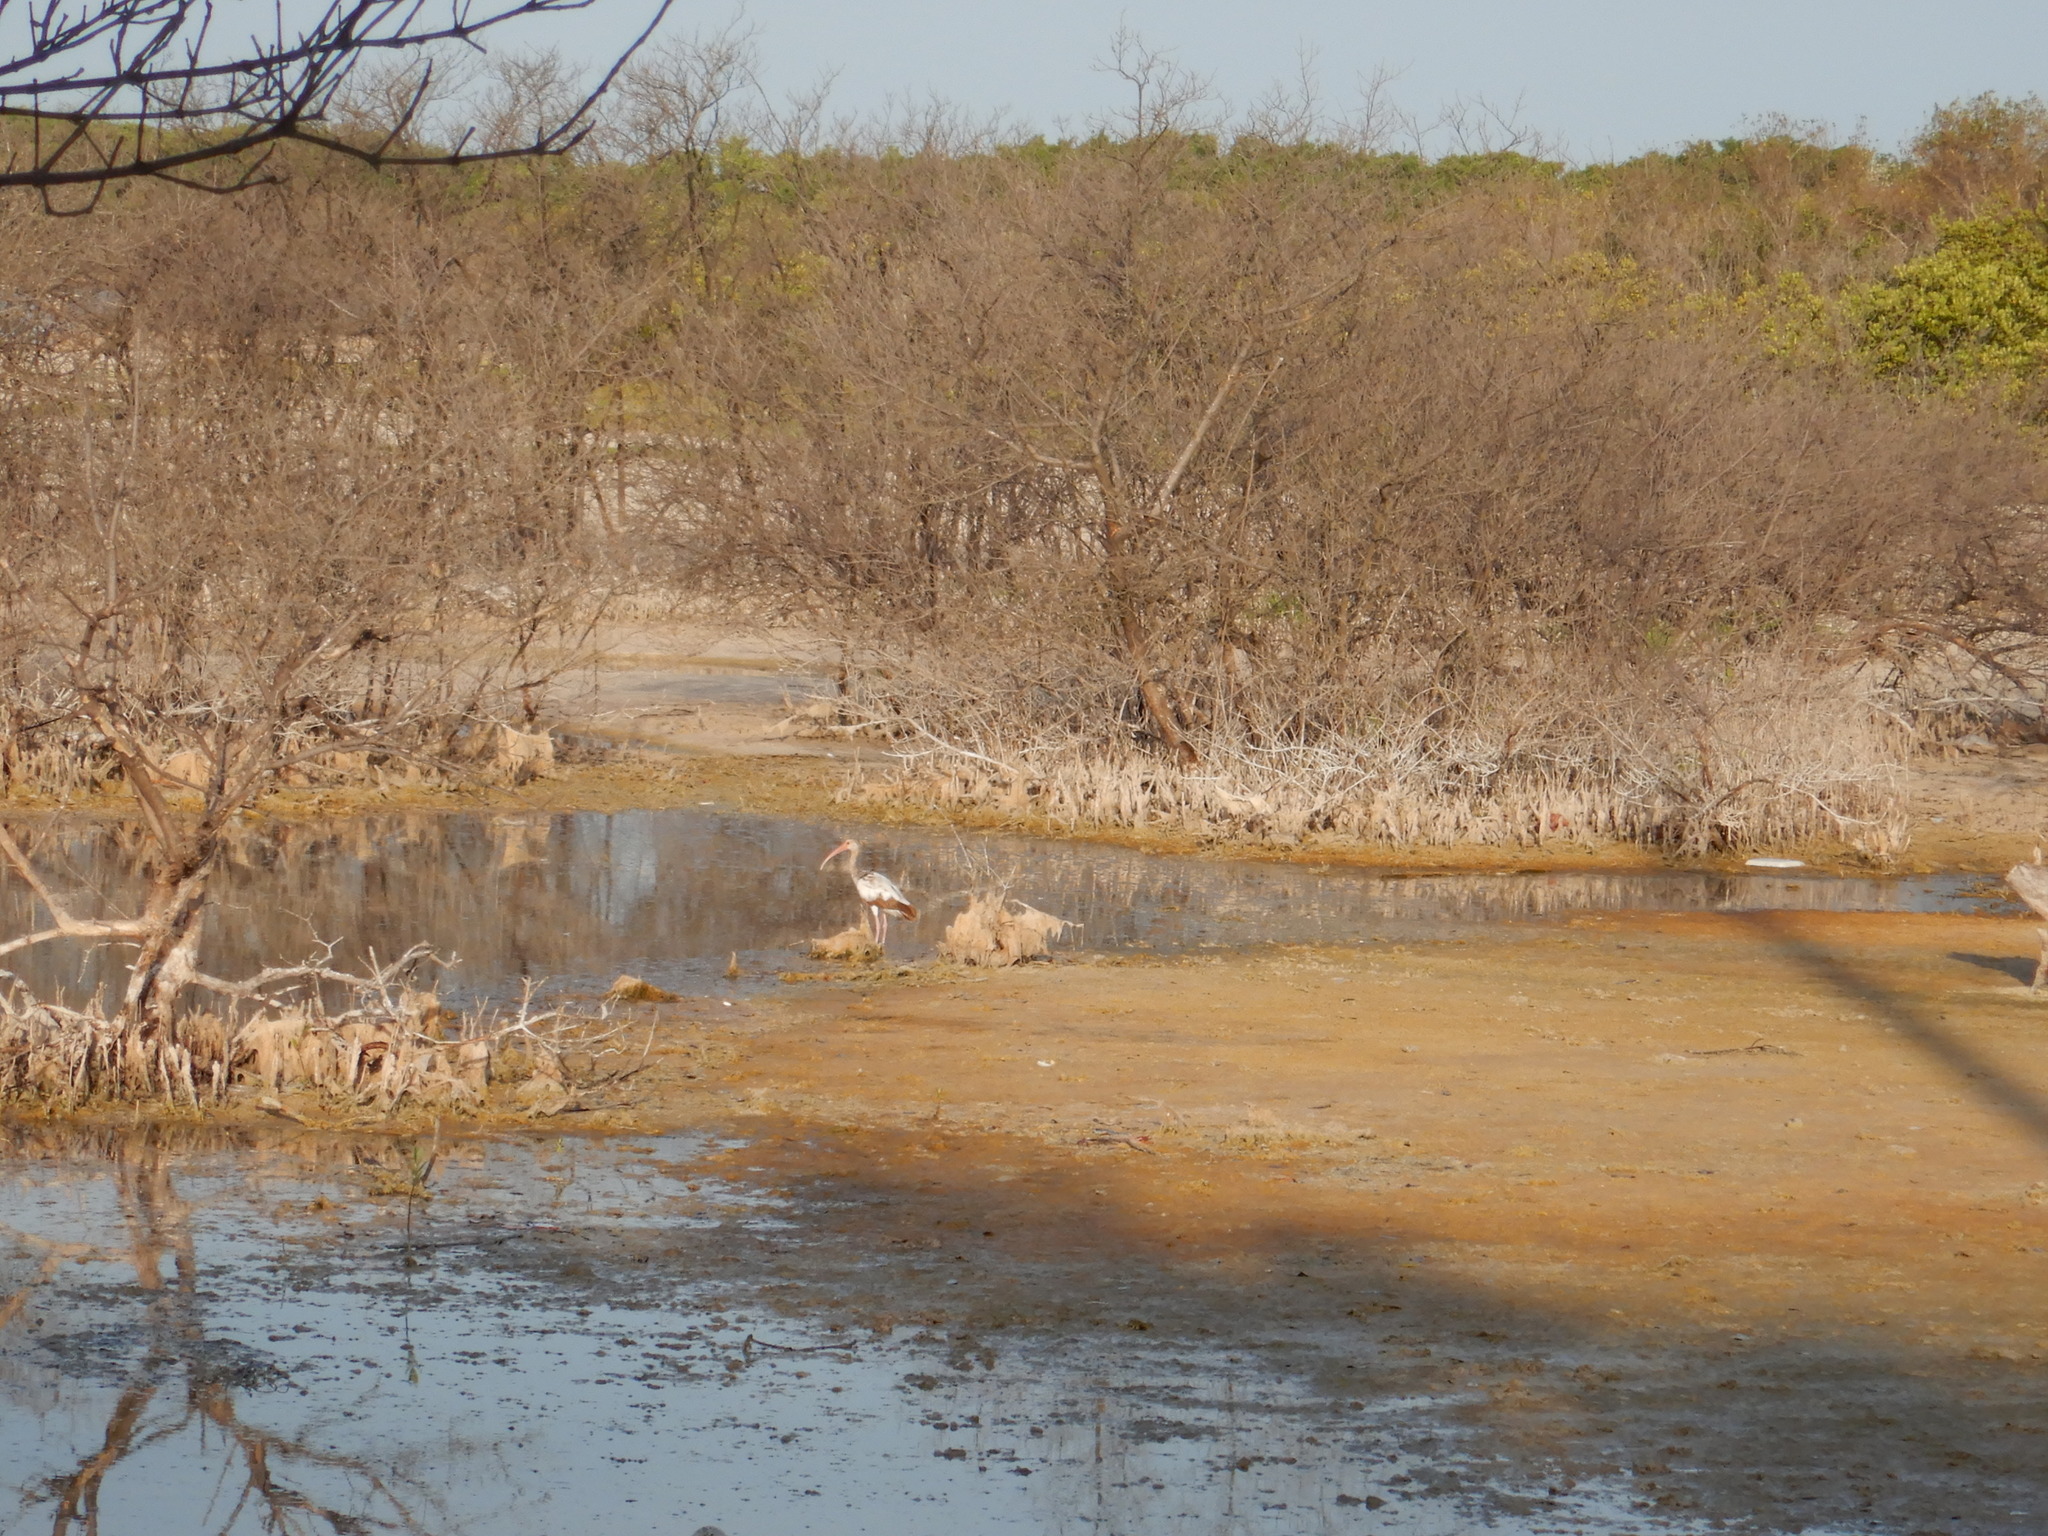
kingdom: Animalia
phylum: Chordata
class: Aves
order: Pelecaniformes
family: Threskiornithidae
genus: Eudocimus
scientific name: Eudocimus albus
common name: White ibis
